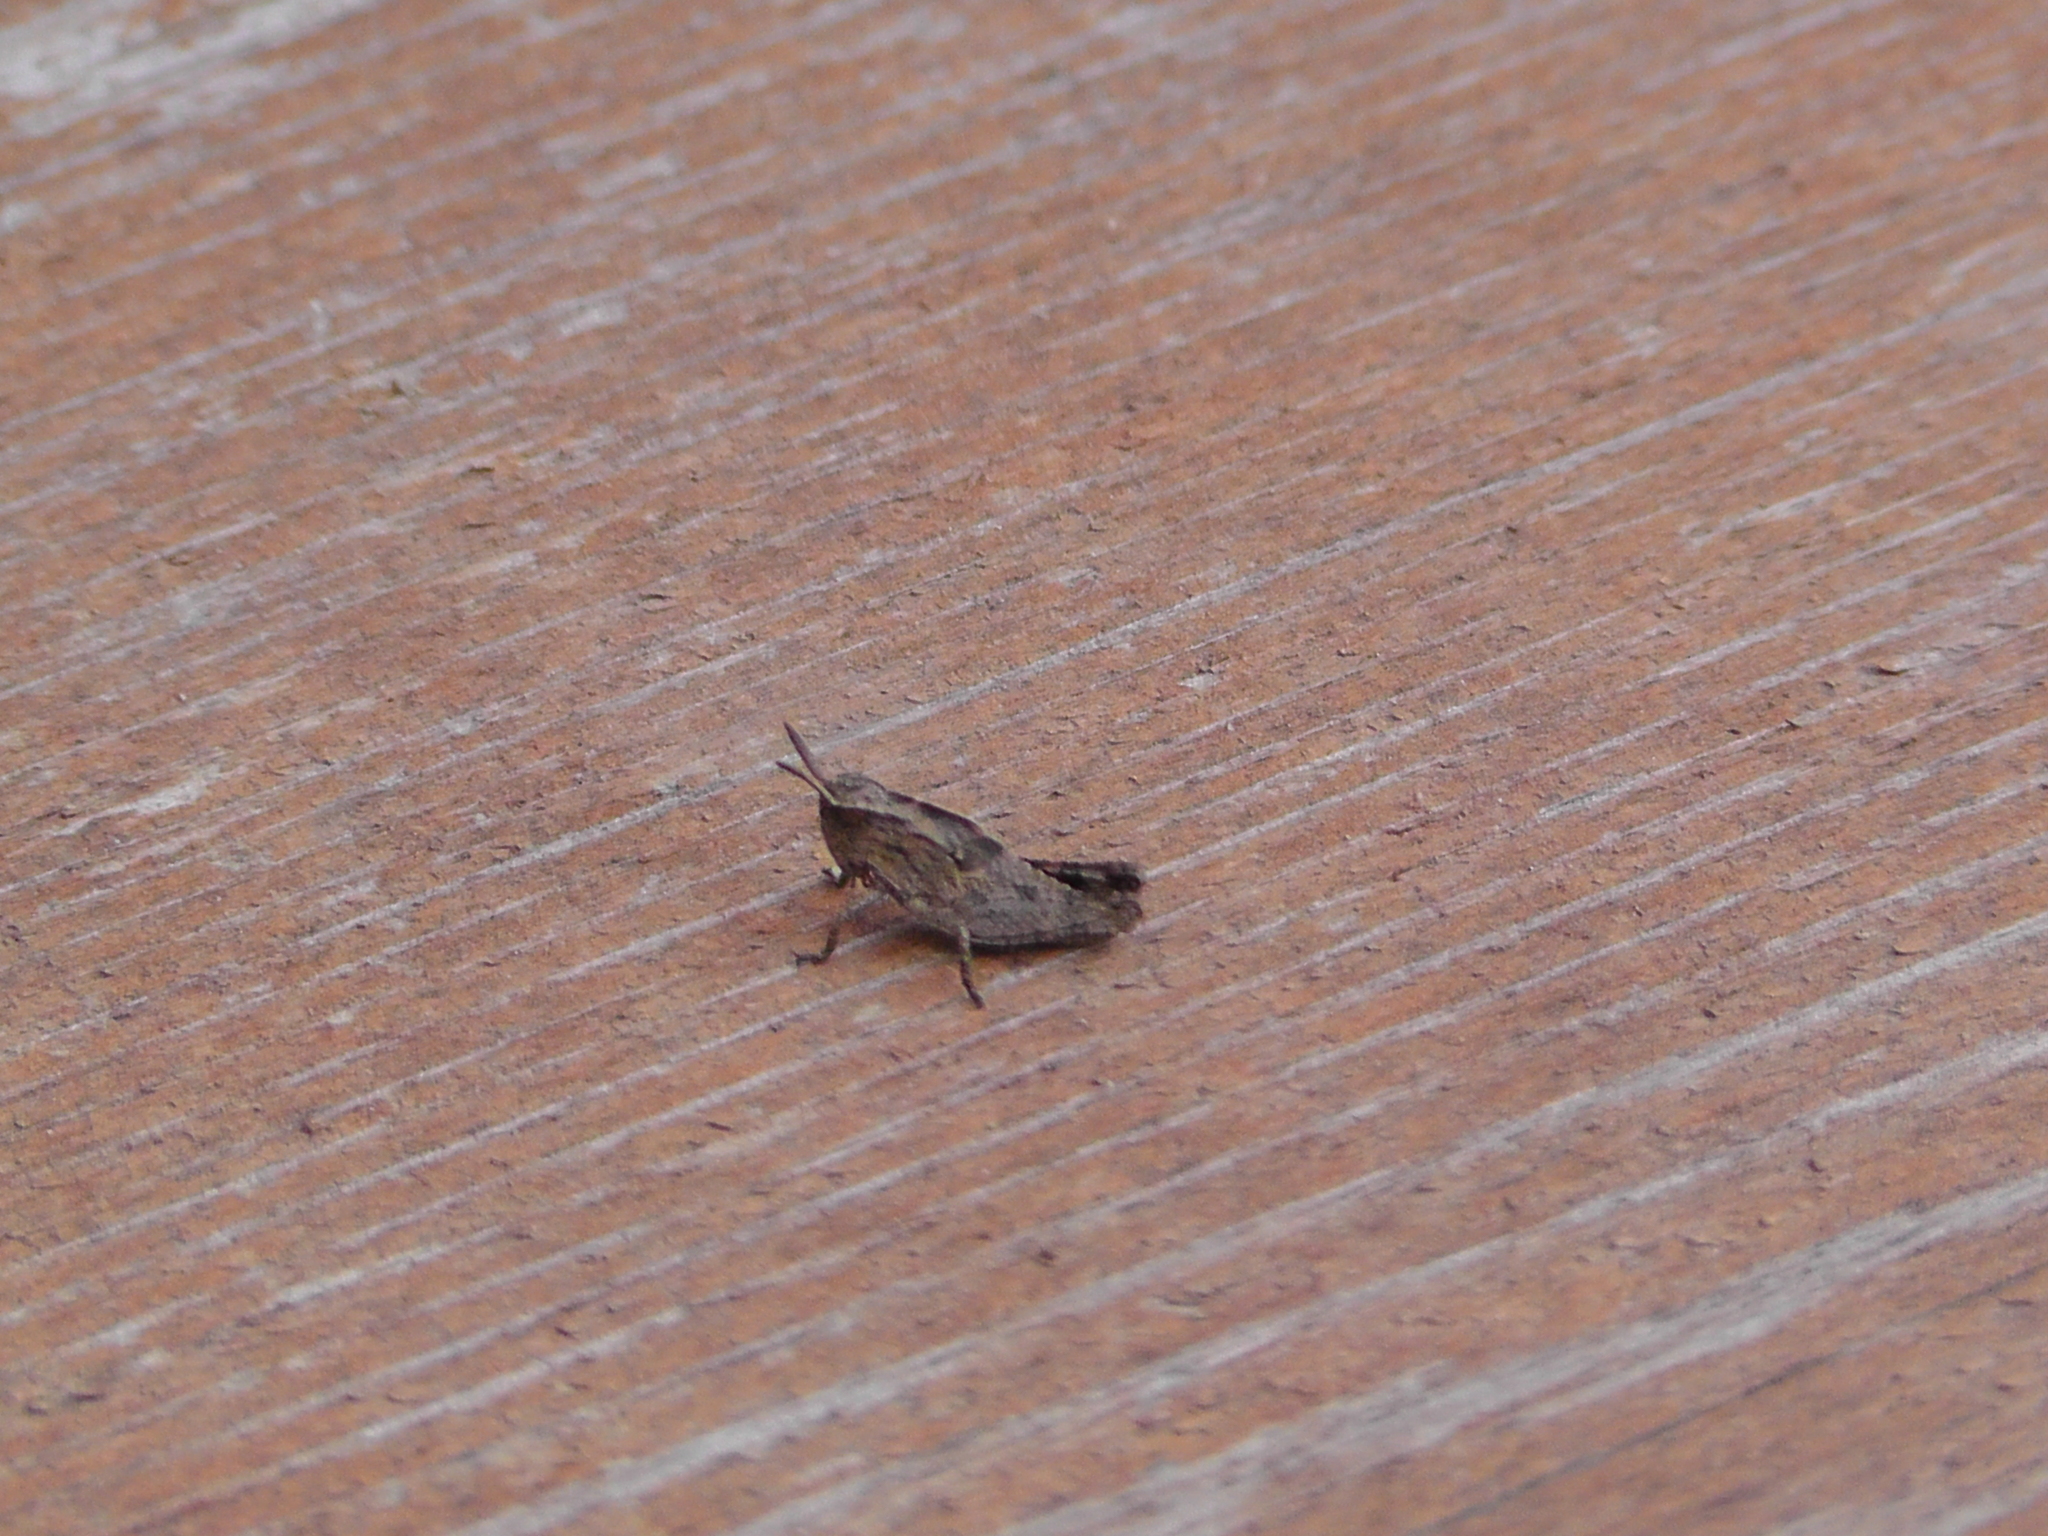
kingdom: Animalia
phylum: Arthropoda
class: Insecta
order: Orthoptera
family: Acrididae
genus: Chortophaga
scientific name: Chortophaga viridifasciata
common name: Green-striped grasshopper
